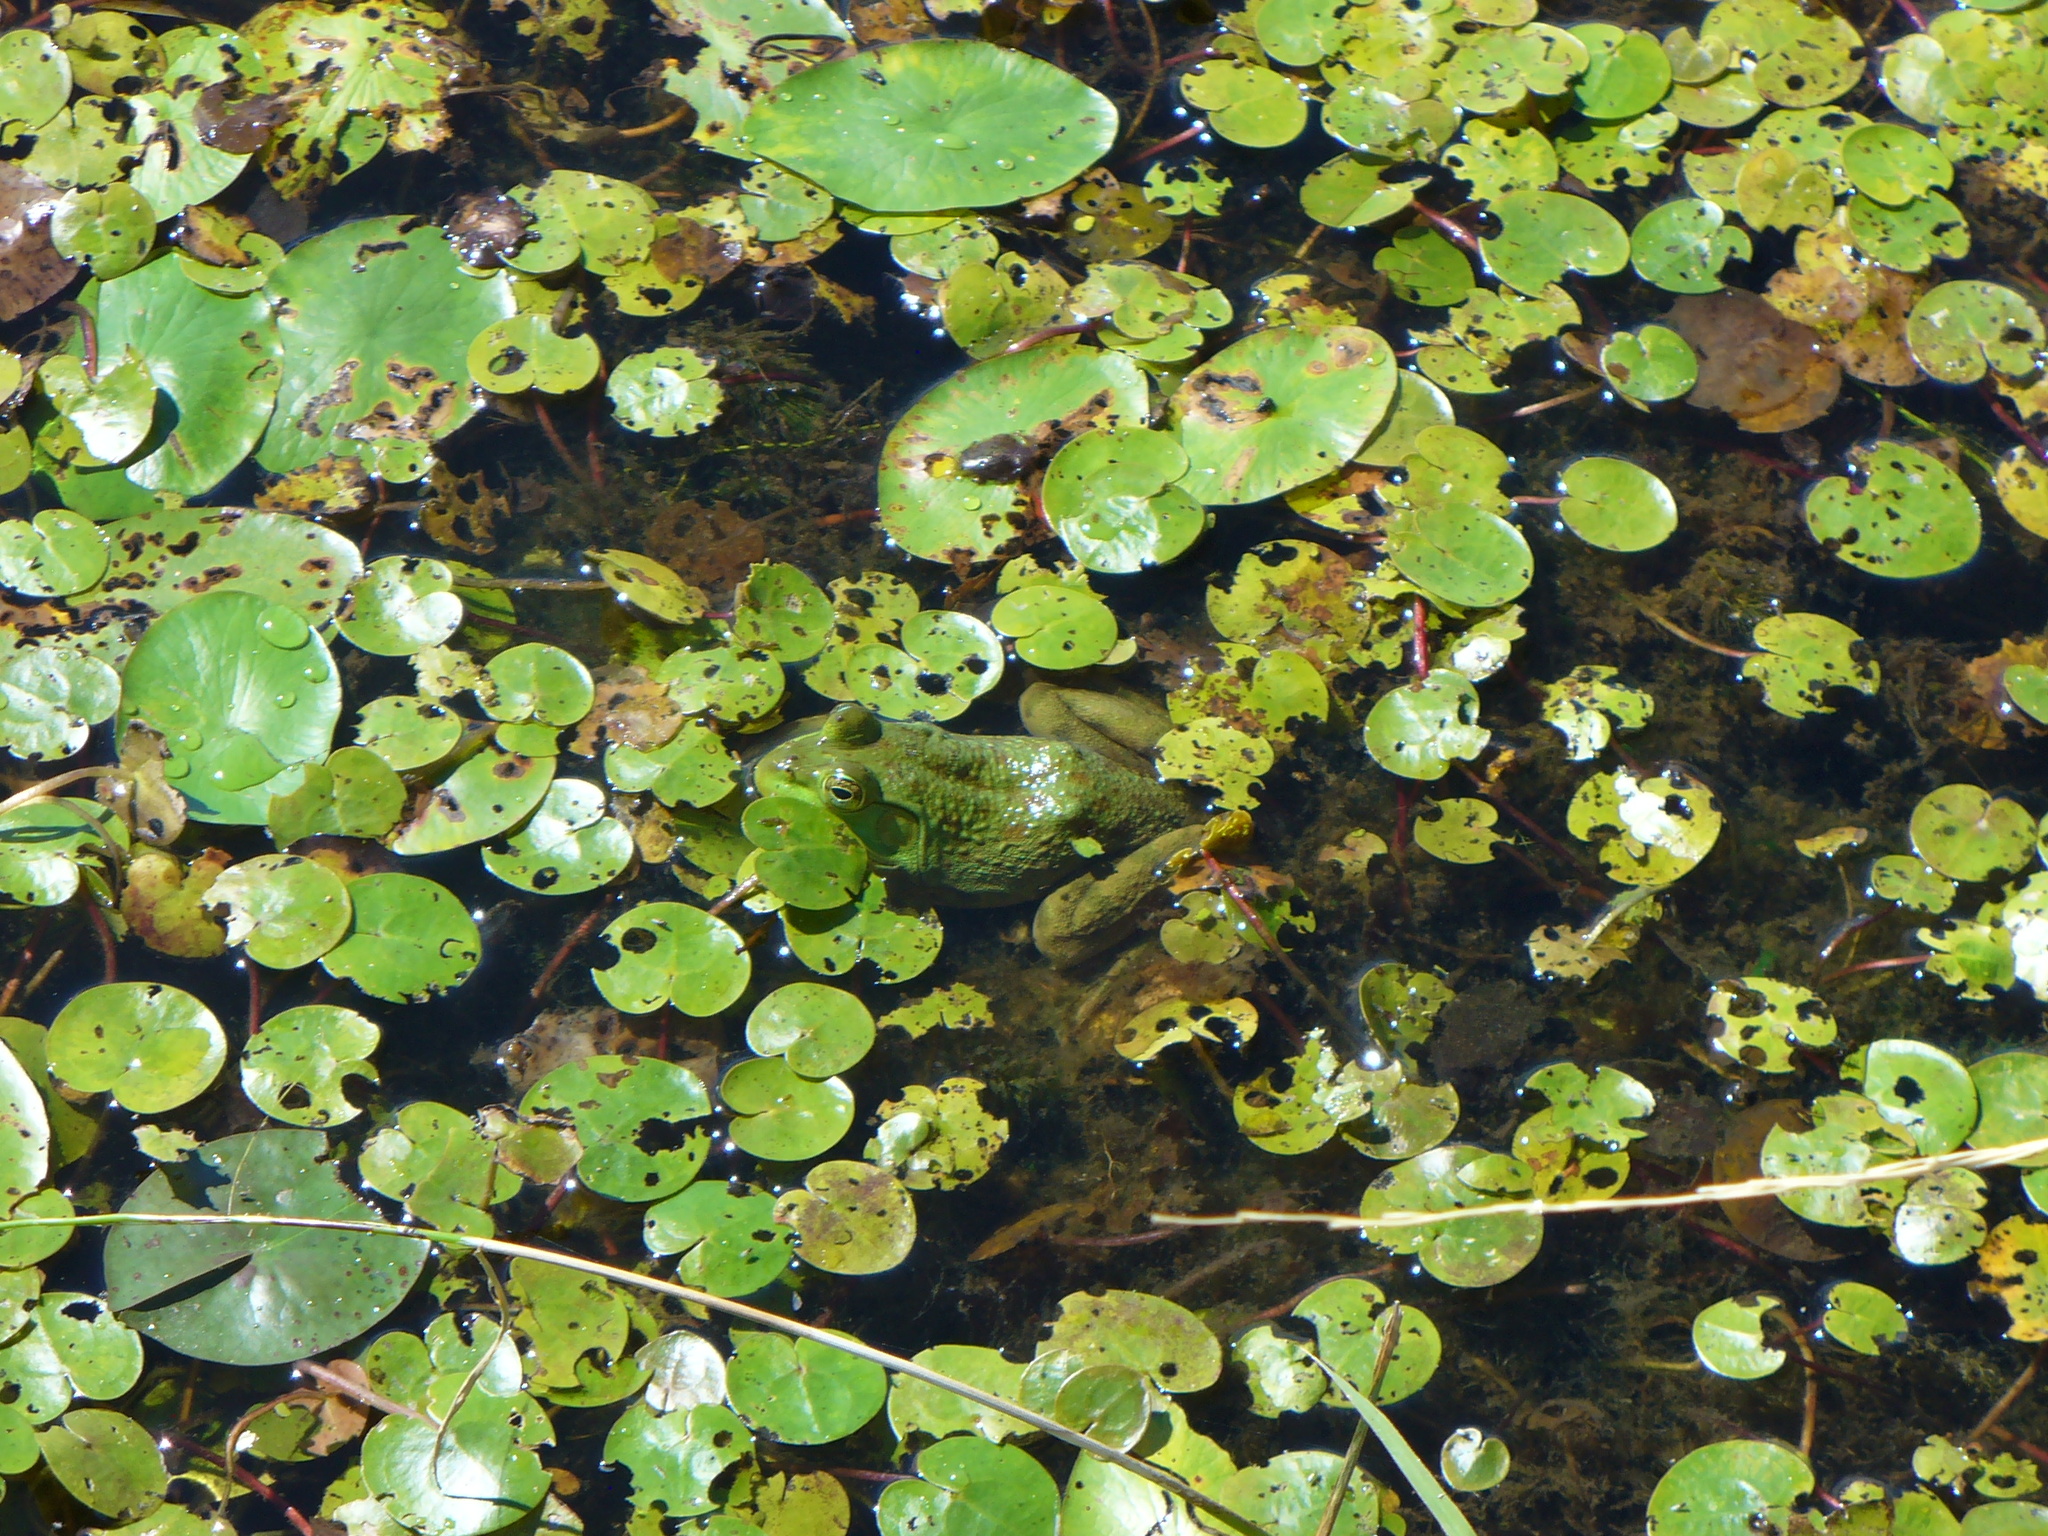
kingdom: Animalia
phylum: Chordata
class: Amphibia
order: Anura
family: Ranidae
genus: Lithobates
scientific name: Lithobates catesbeianus
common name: American bullfrog
